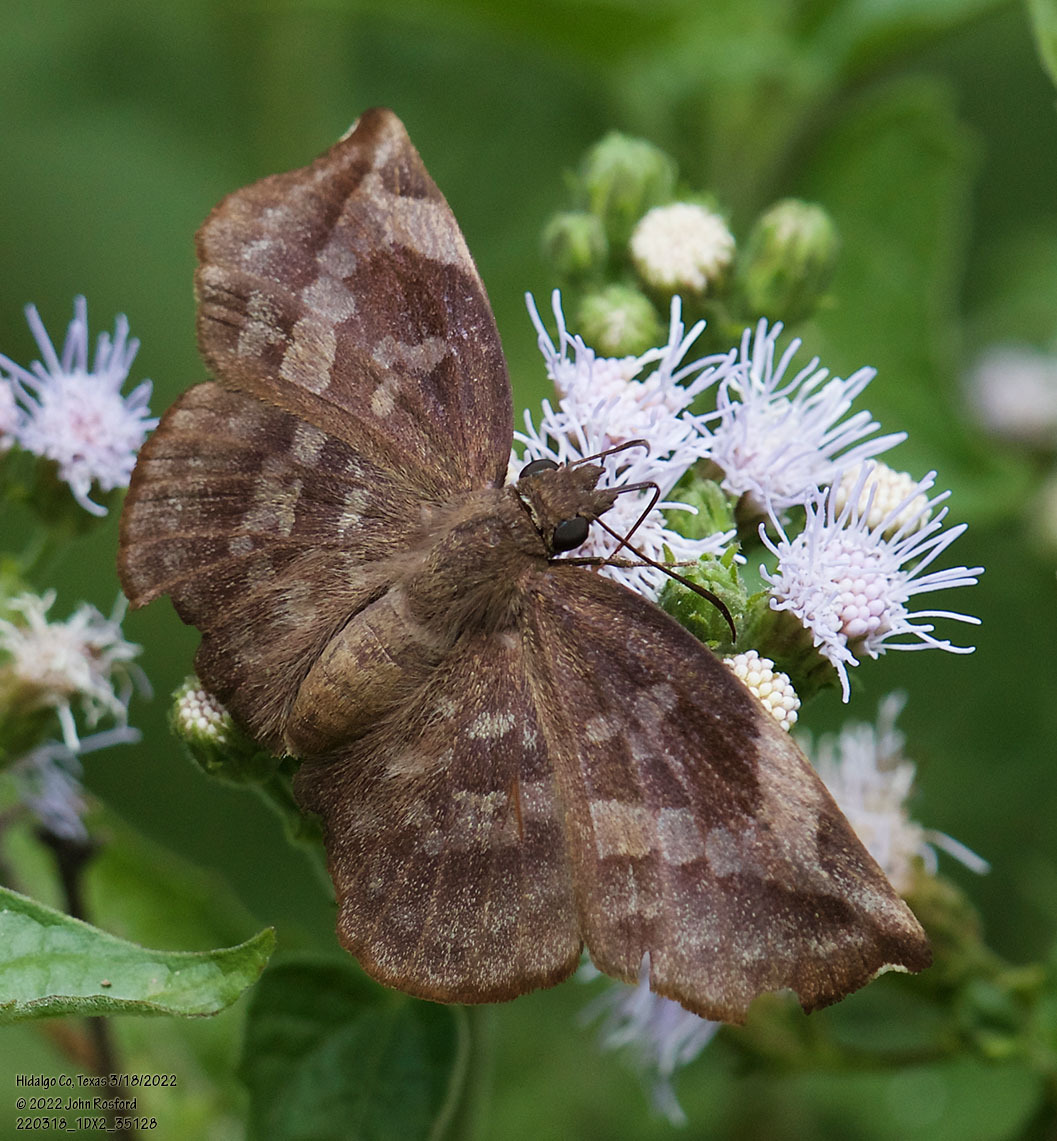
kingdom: Animalia
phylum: Arthropoda
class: Insecta
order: Lepidoptera
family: Hesperiidae
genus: Achlyodes
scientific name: Achlyodes thraso
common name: Sickle-winged skipper
